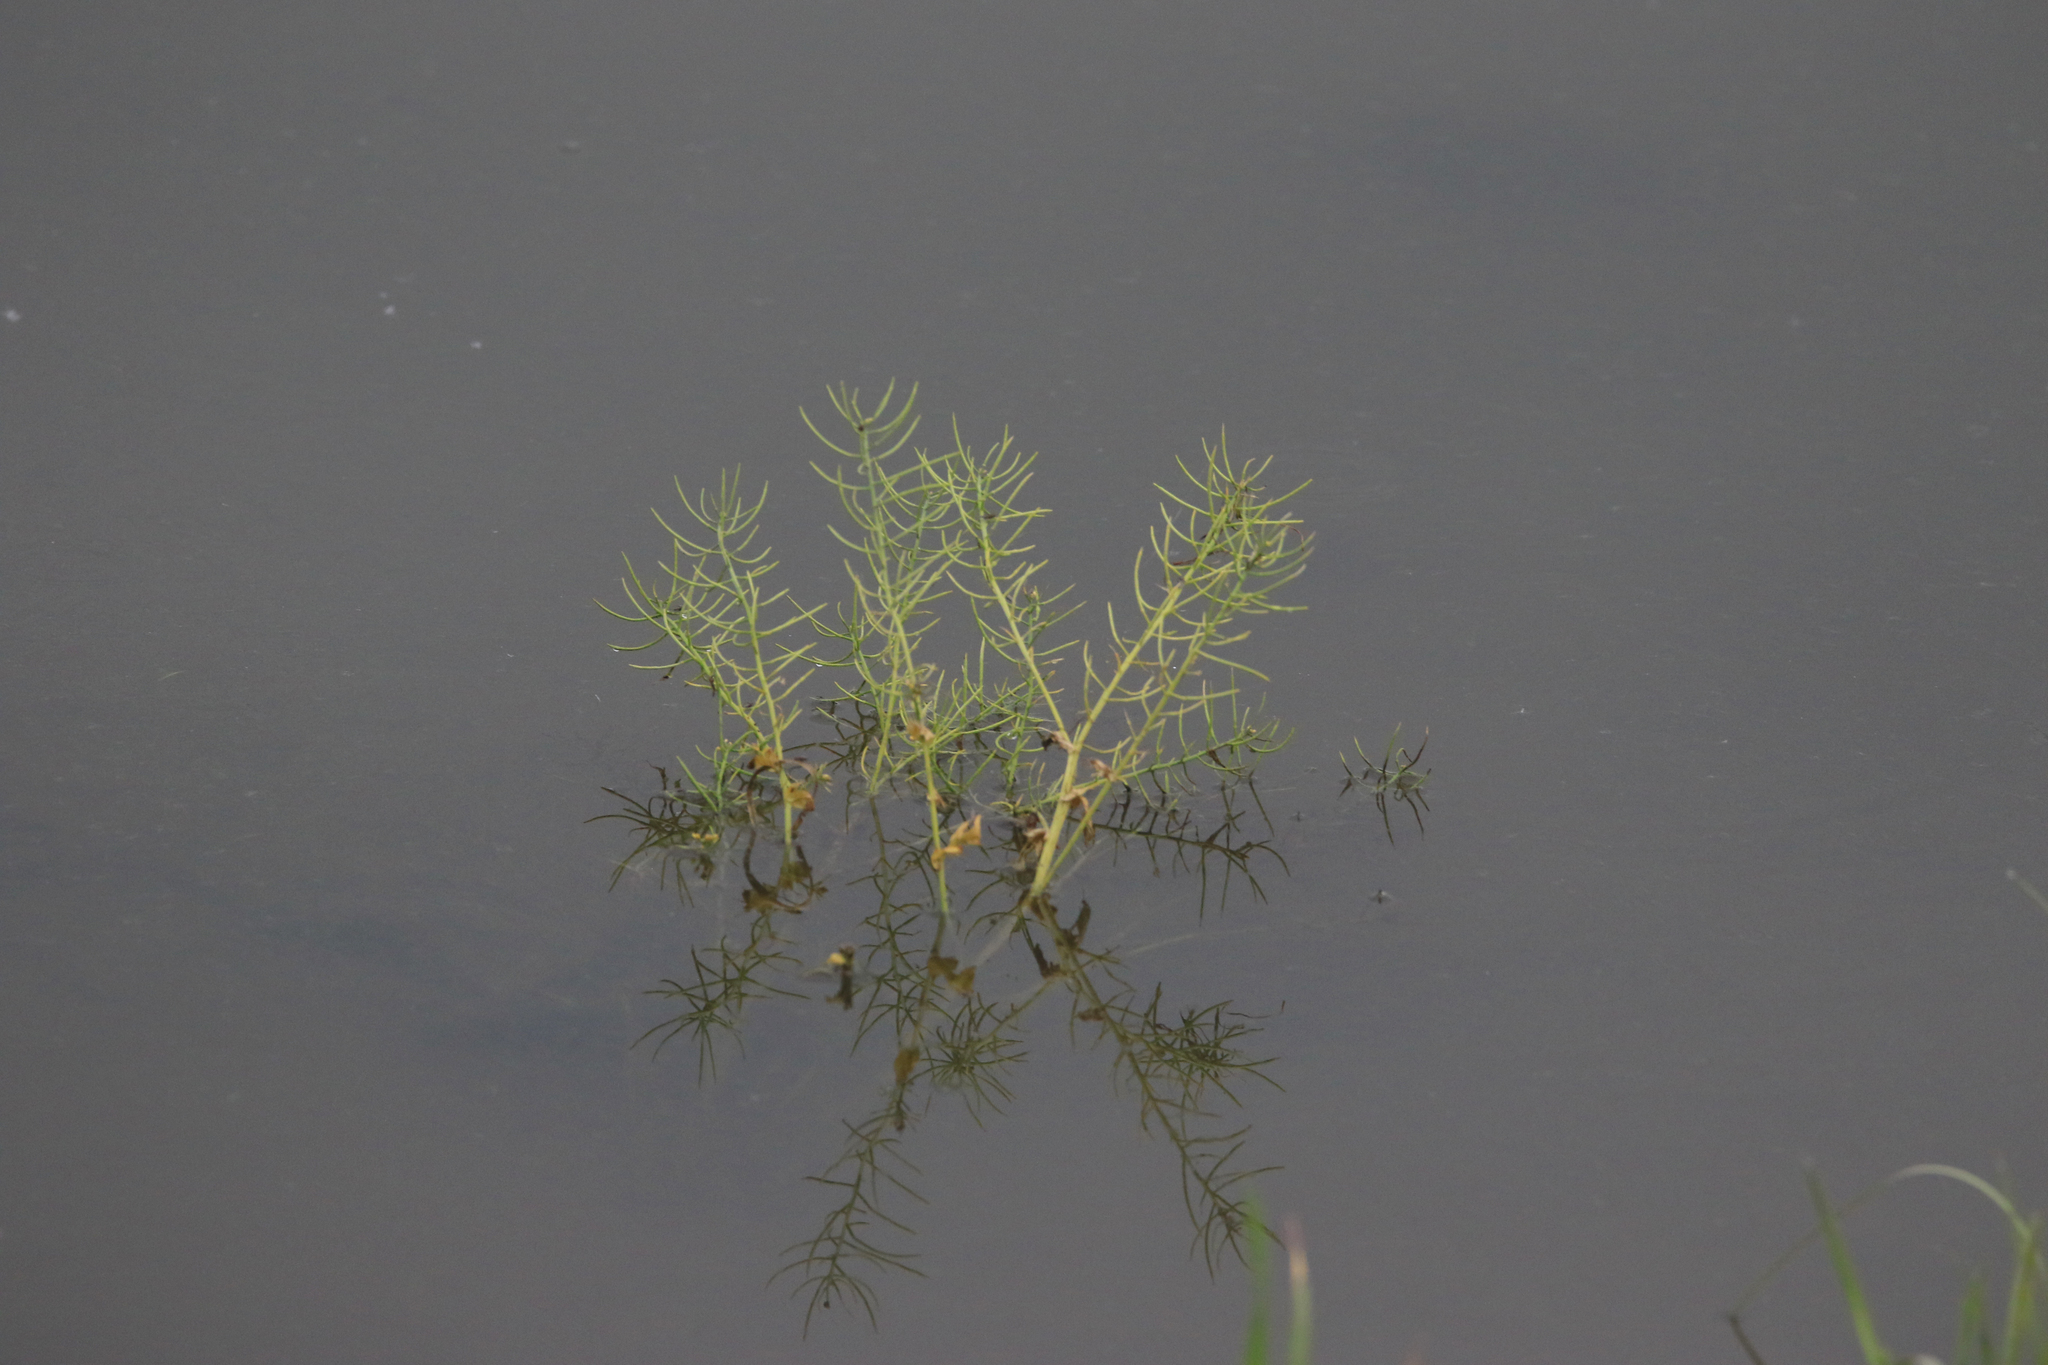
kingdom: Plantae
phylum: Tracheophyta
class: Magnoliopsida
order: Brassicales
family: Brassicaceae
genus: Barbarea
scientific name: Barbarea vulgaris
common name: Cressy-greens
